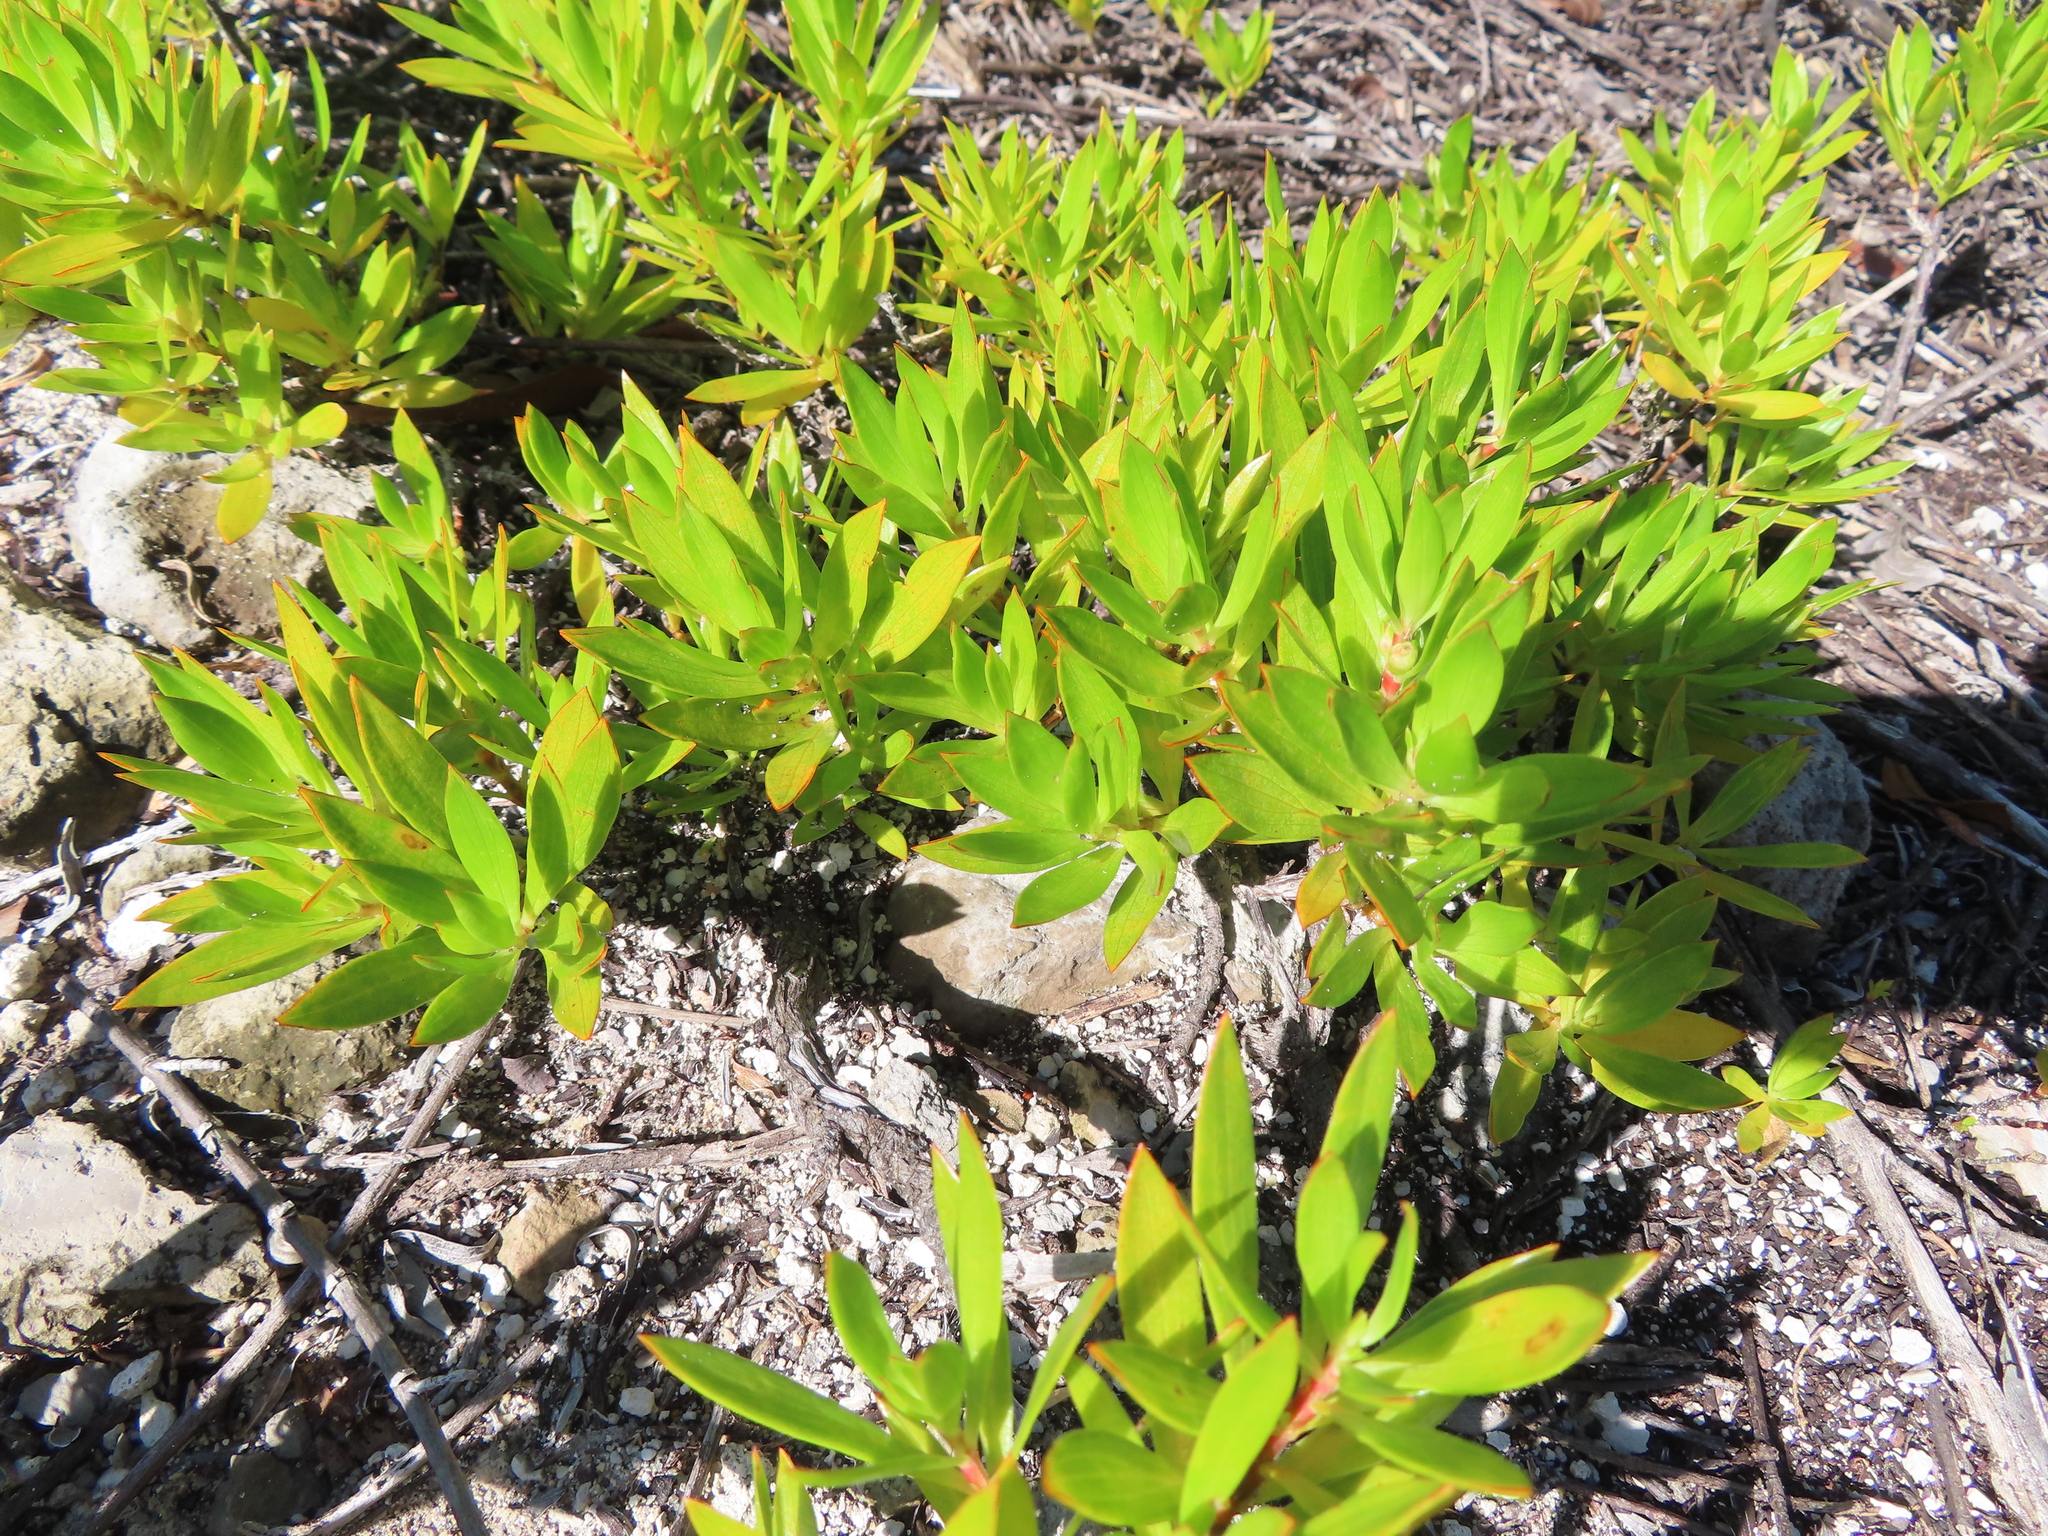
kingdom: Plantae
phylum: Tracheophyta
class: Magnoliopsida
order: Gentianales
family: Rubiaceae
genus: Ernodea
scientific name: Ernodea littoralis
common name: Beach creeper
